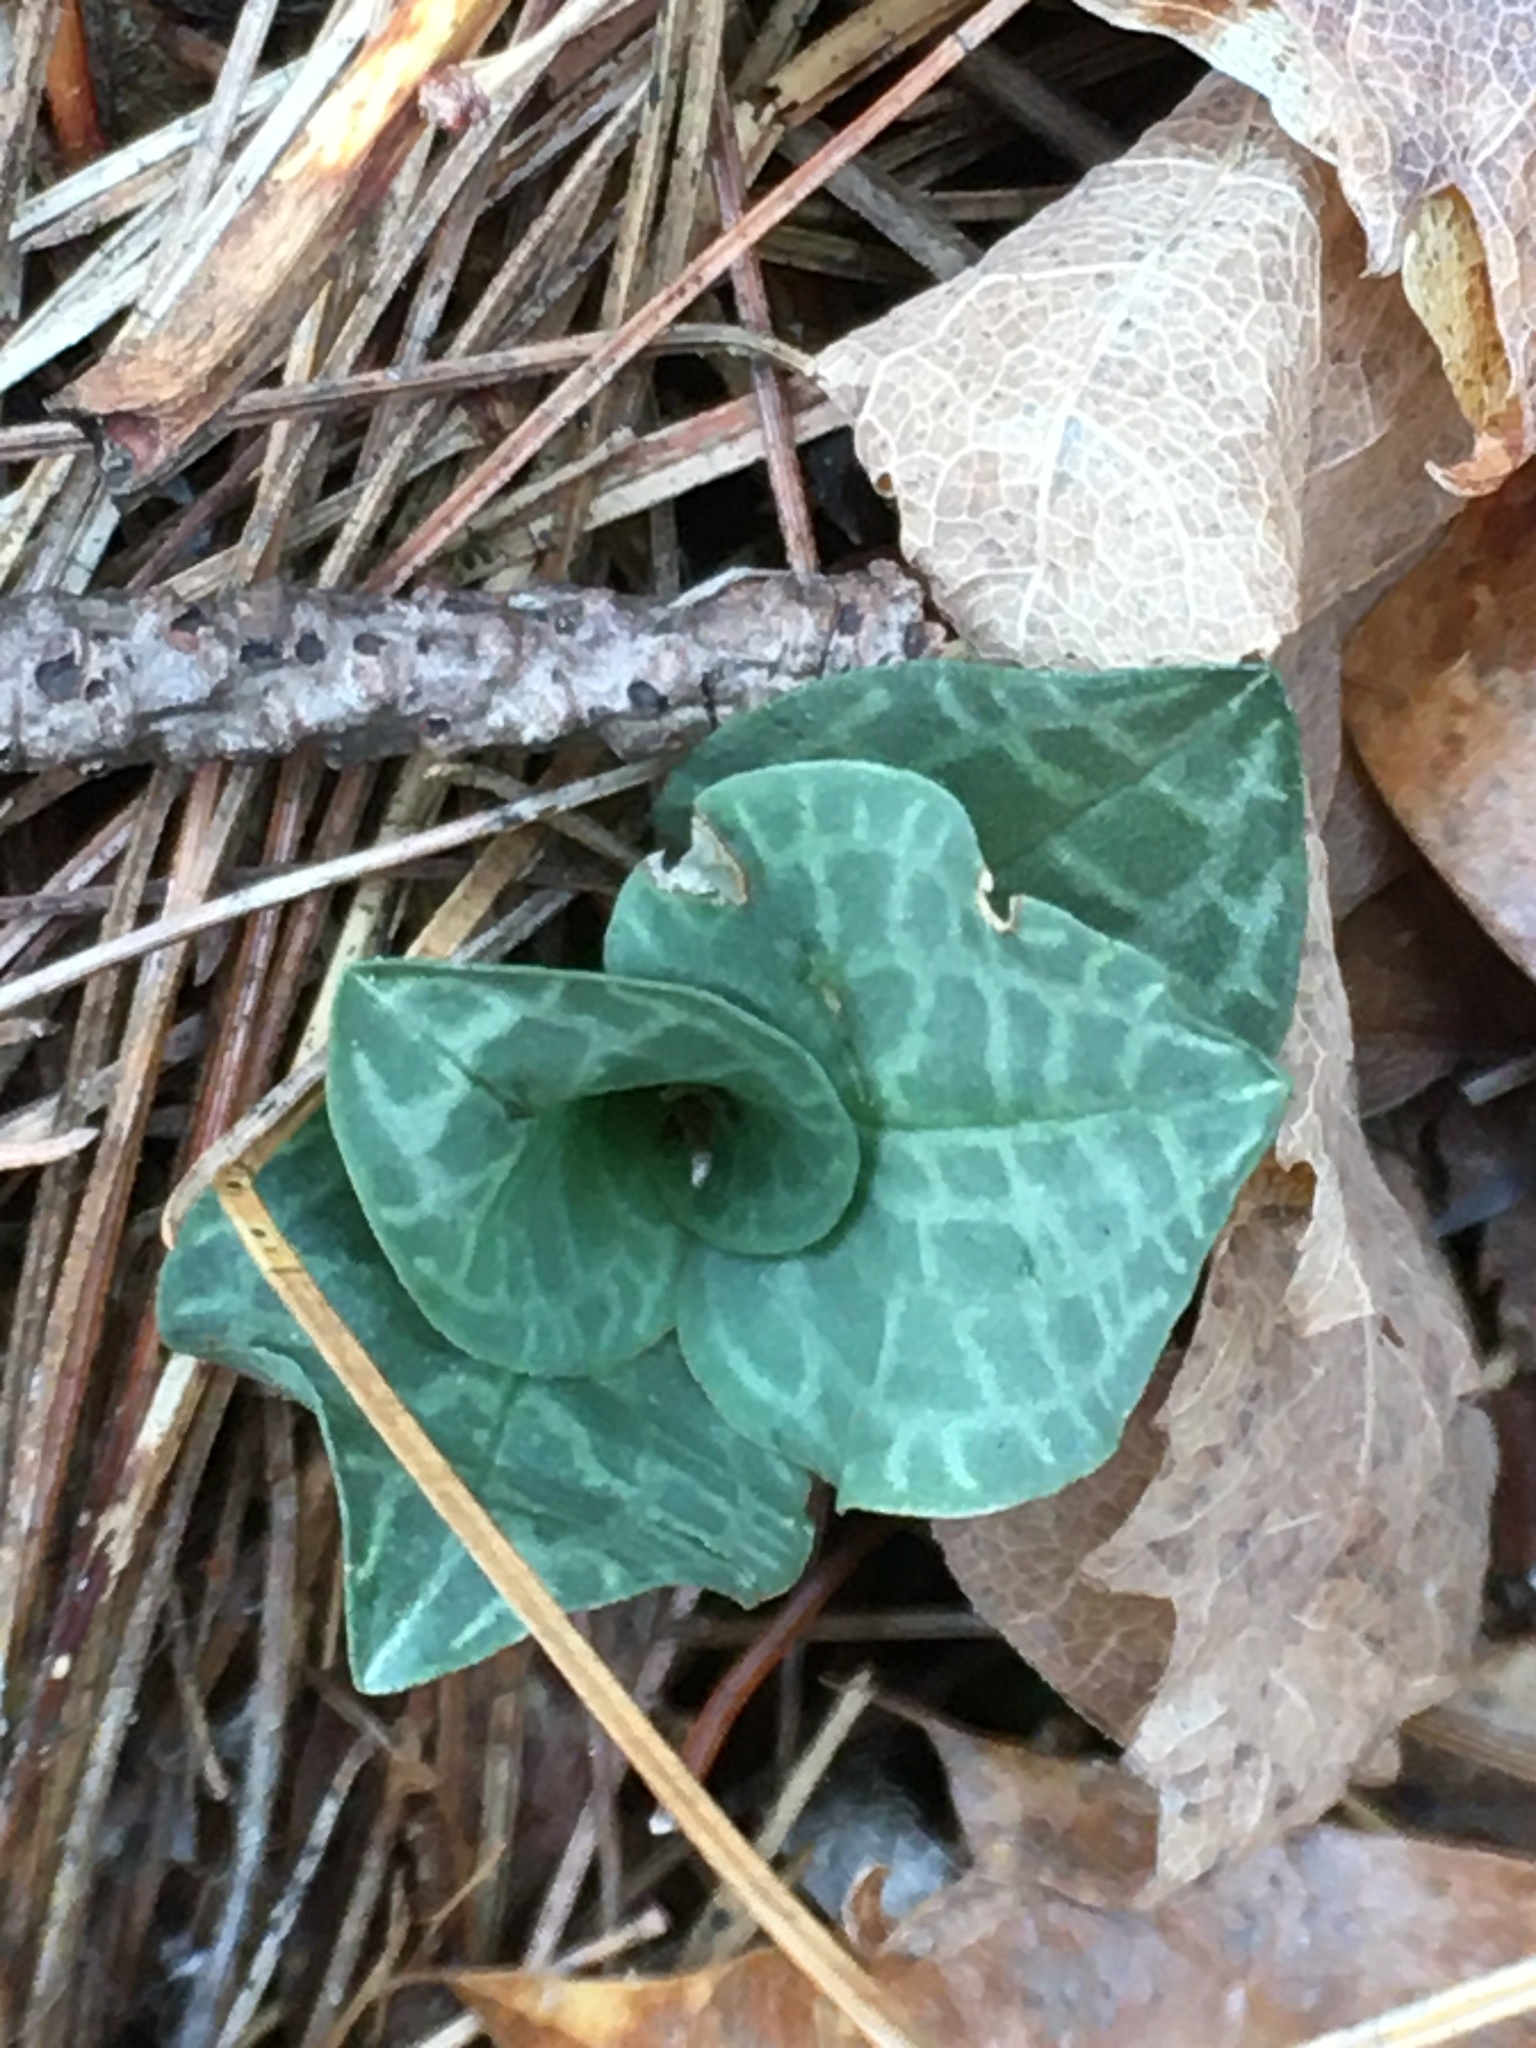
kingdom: Plantae
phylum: Tracheophyta
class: Liliopsida
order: Asparagales
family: Orchidaceae
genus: Goodyera
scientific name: Goodyera tesselata
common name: Checkered rattlesnake-plantain
